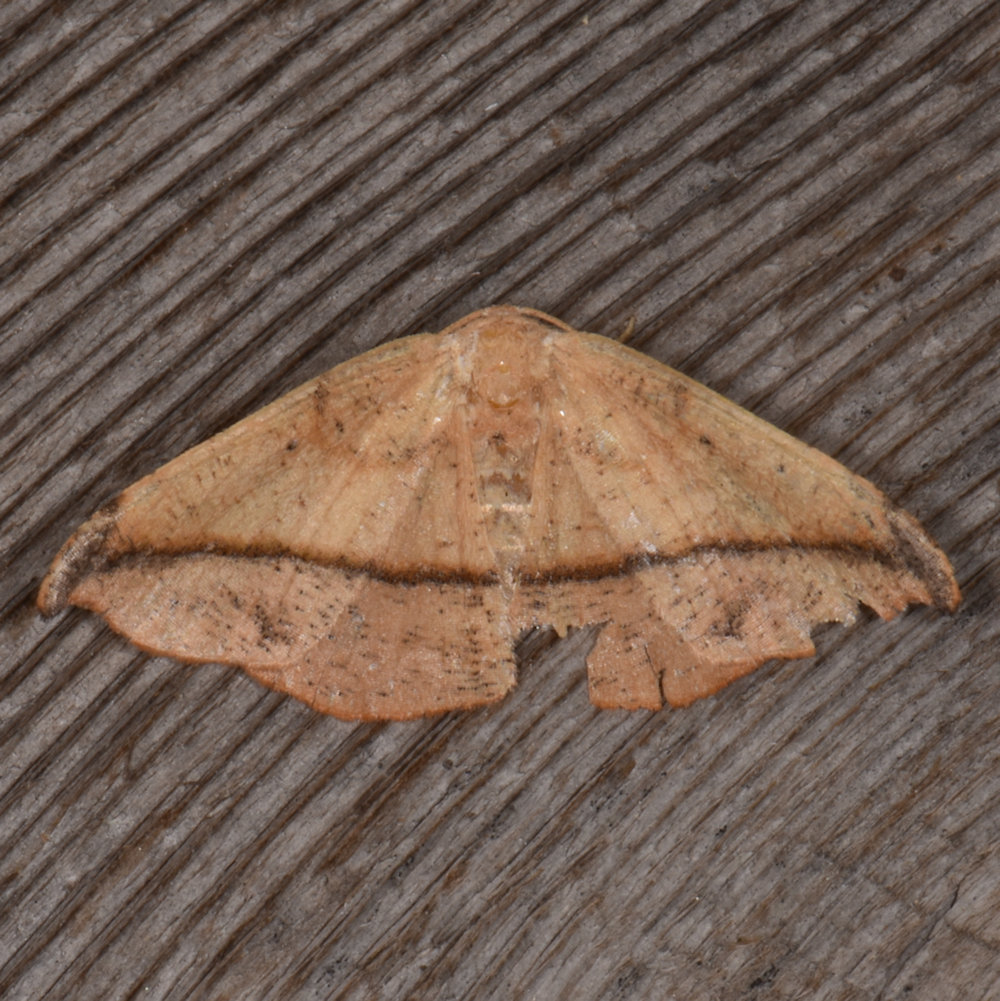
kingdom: Animalia
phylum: Arthropoda
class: Insecta
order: Lepidoptera
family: Geometridae
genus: Patalene
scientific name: Patalene olyzonaria
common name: Juniper geometer moth
